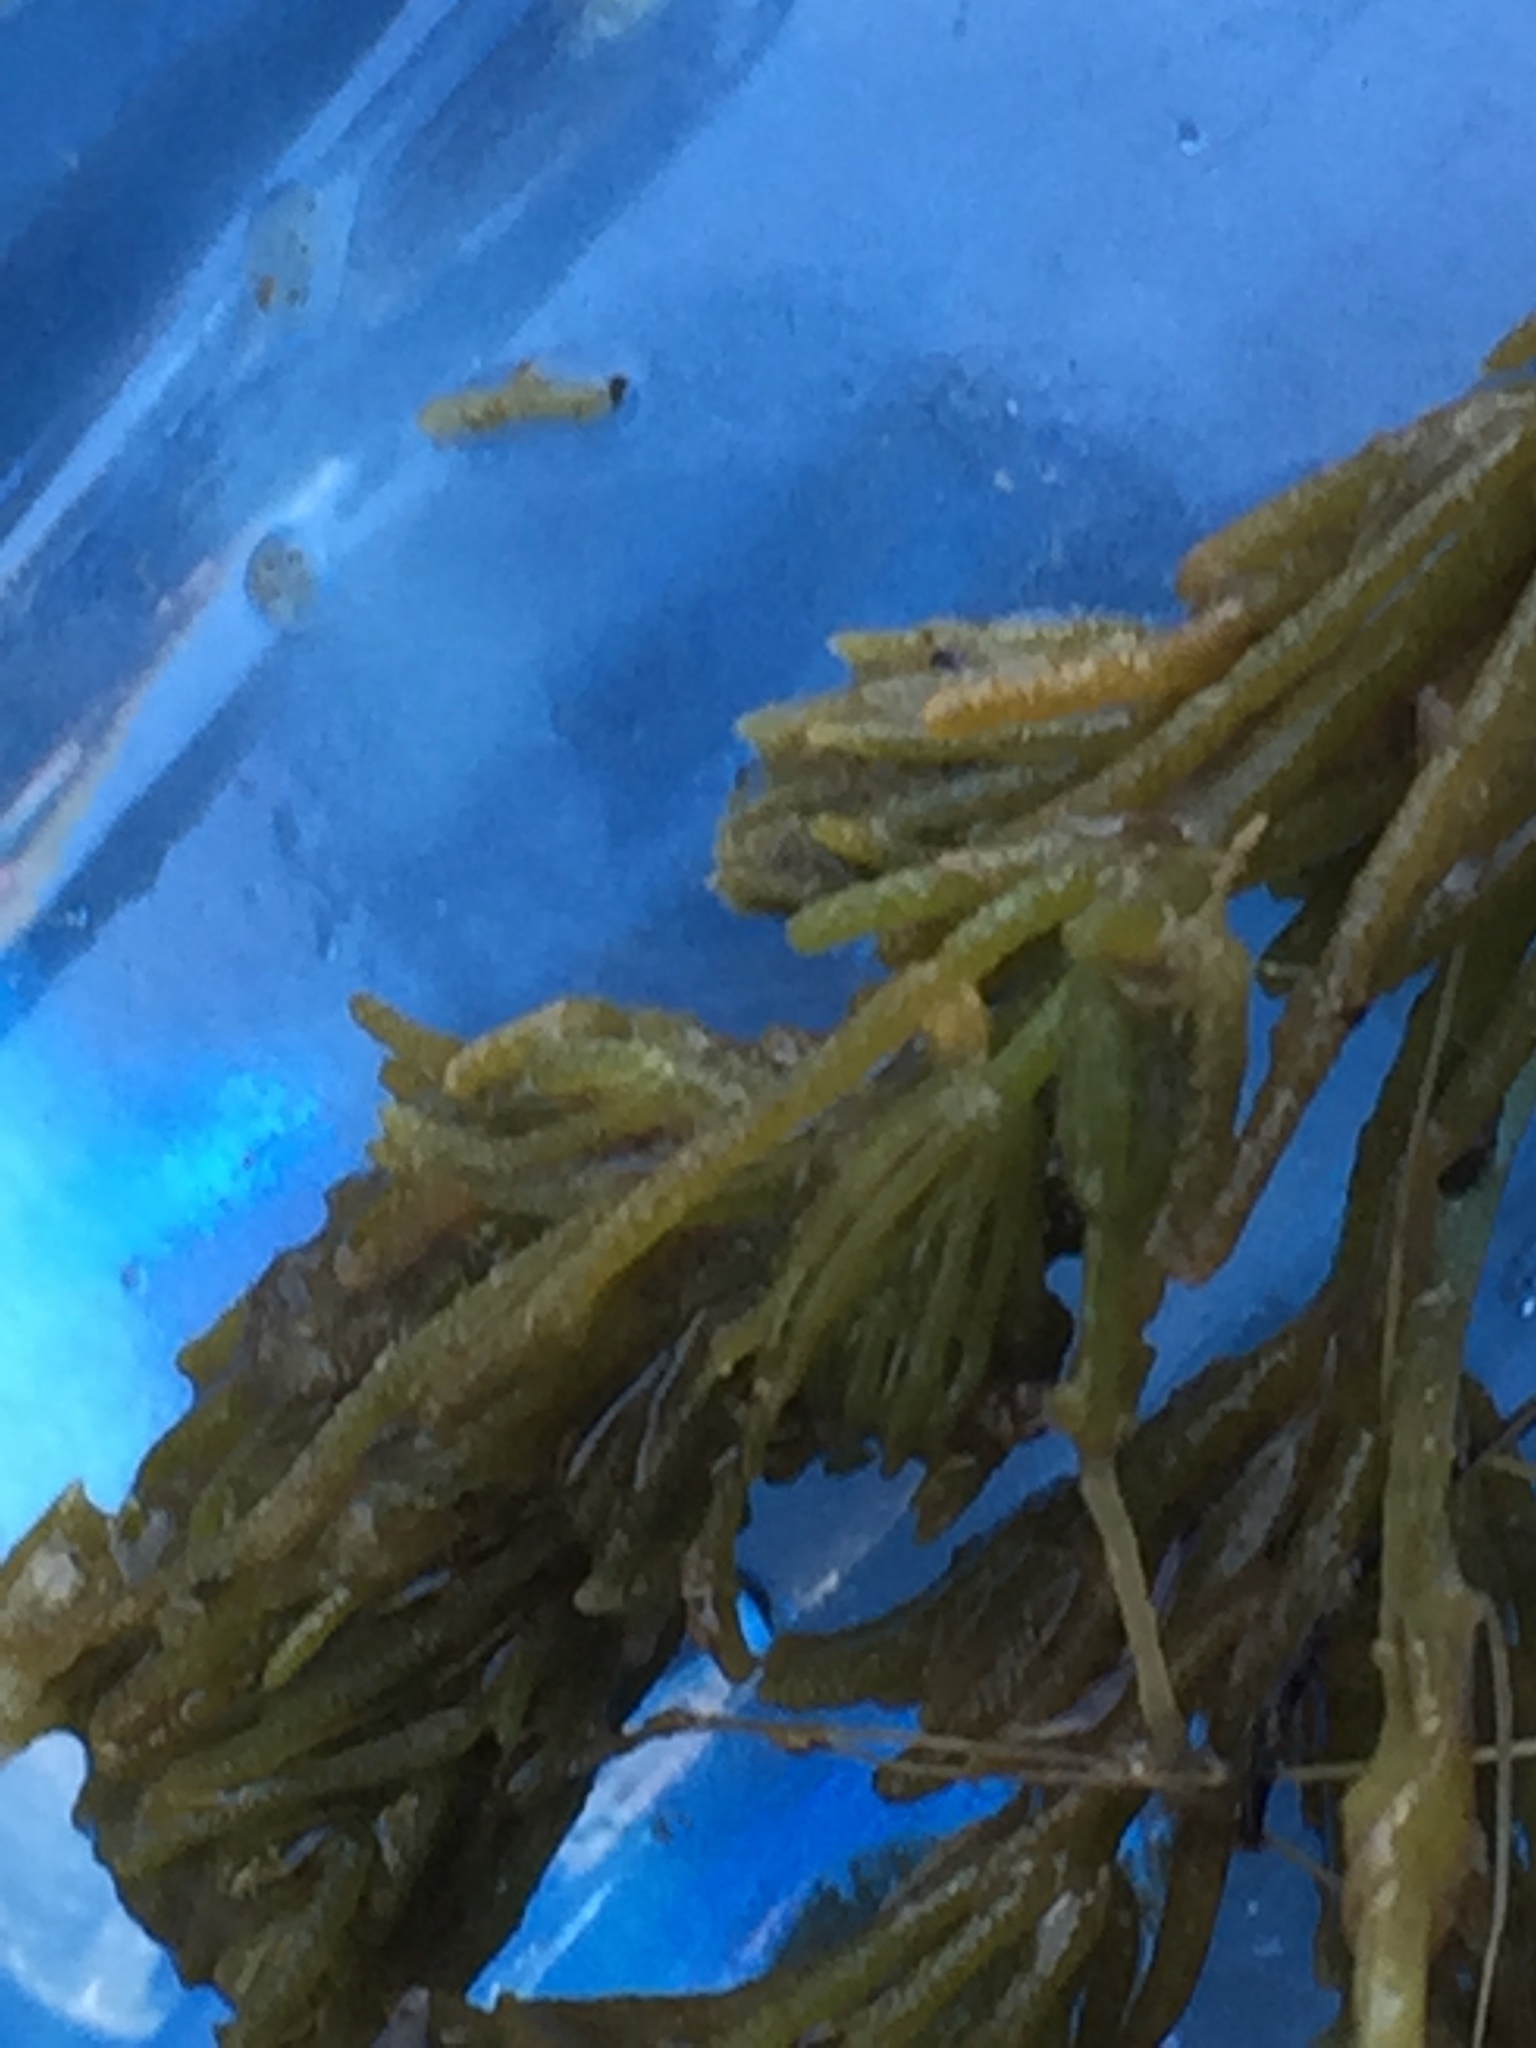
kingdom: Plantae
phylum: Charophyta
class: Charophyceae
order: Charales
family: Characeae
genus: Chara
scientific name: Chara
